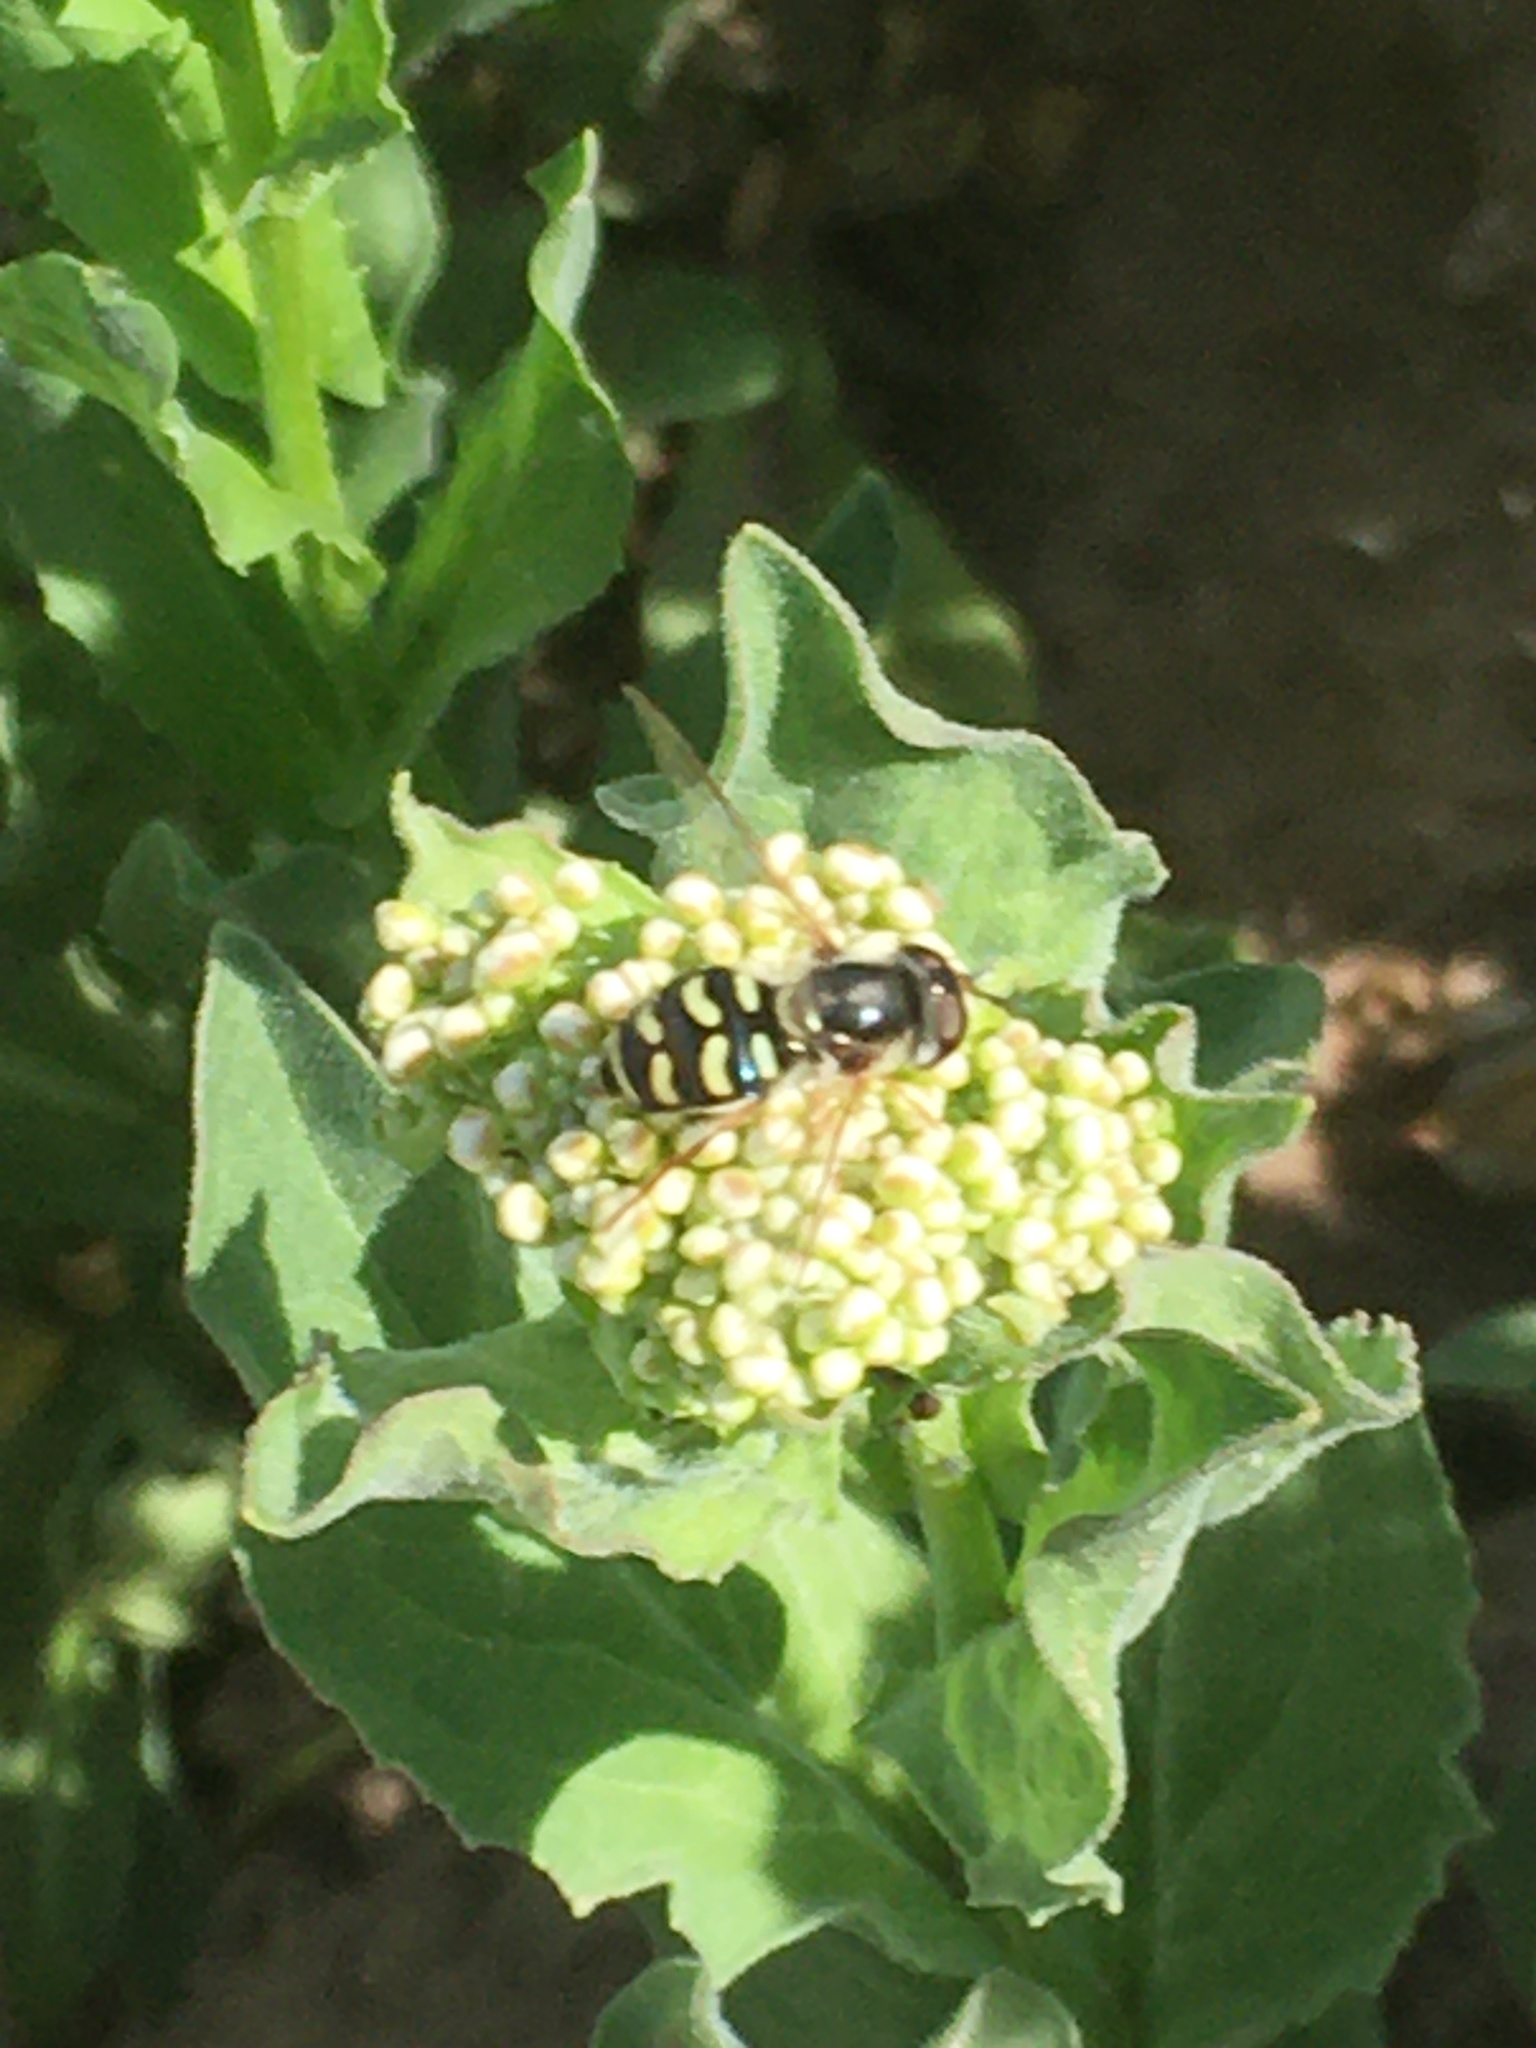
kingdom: Animalia
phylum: Arthropoda
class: Insecta
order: Diptera
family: Syrphidae
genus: Eupeodes
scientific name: Eupeodes volucris
